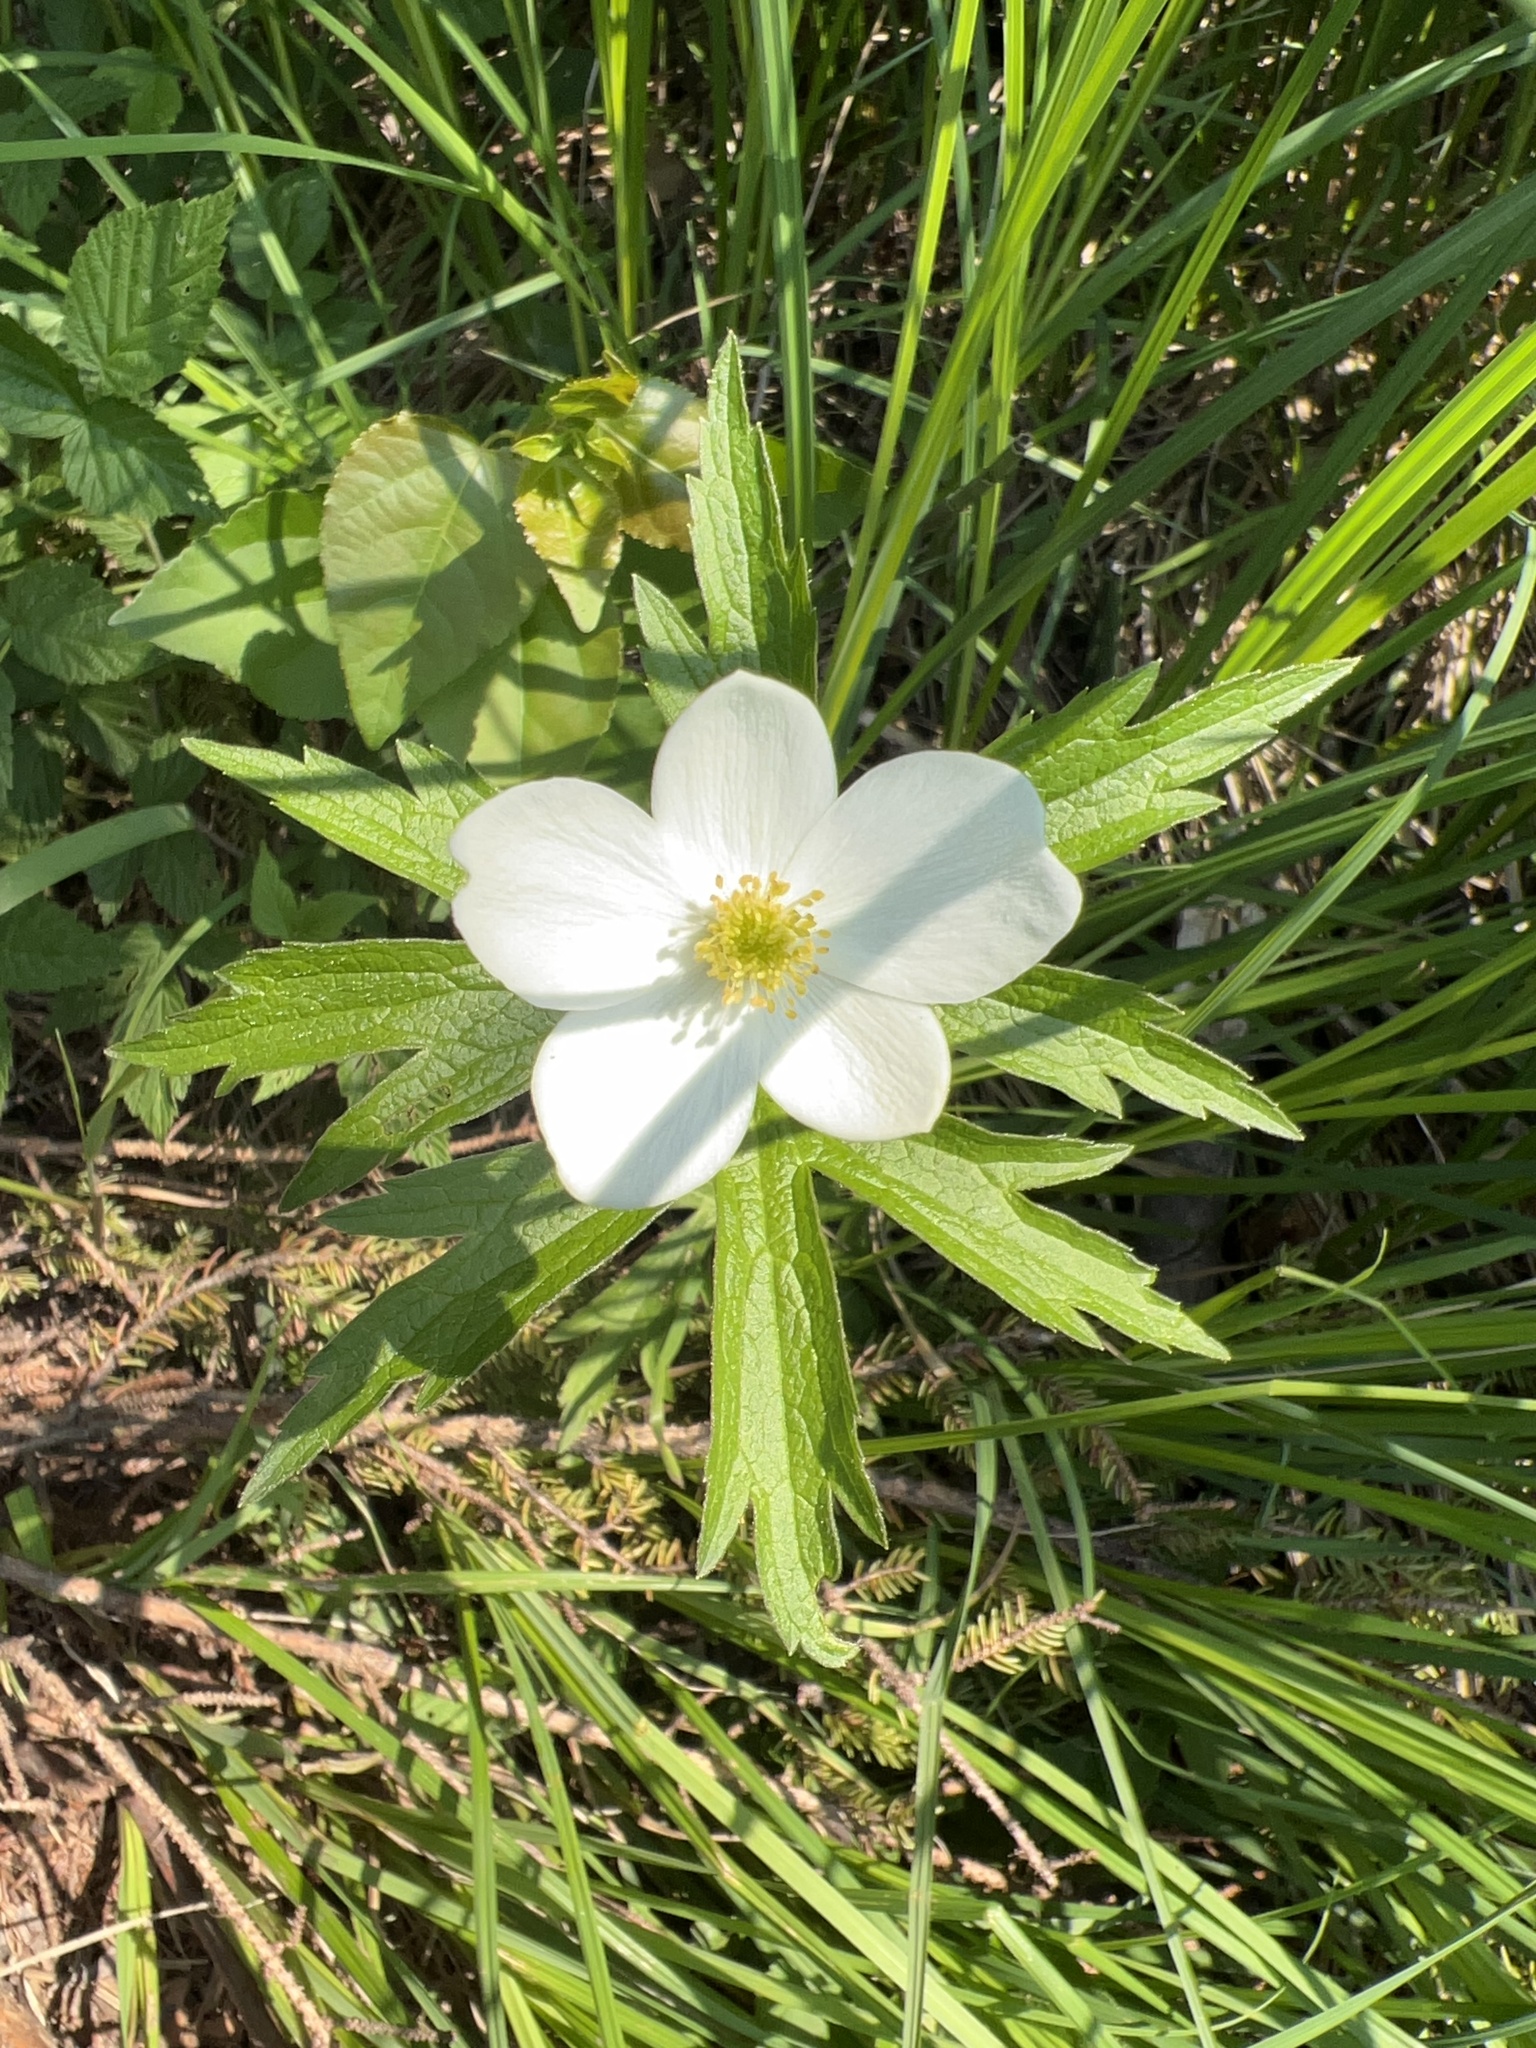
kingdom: Plantae
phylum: Tracheophyta
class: Magnoliopsida
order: Ranunculales
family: Ranunculaceae
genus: Anemonastrum
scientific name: Anemonastrum canadense
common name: Canada anemone
